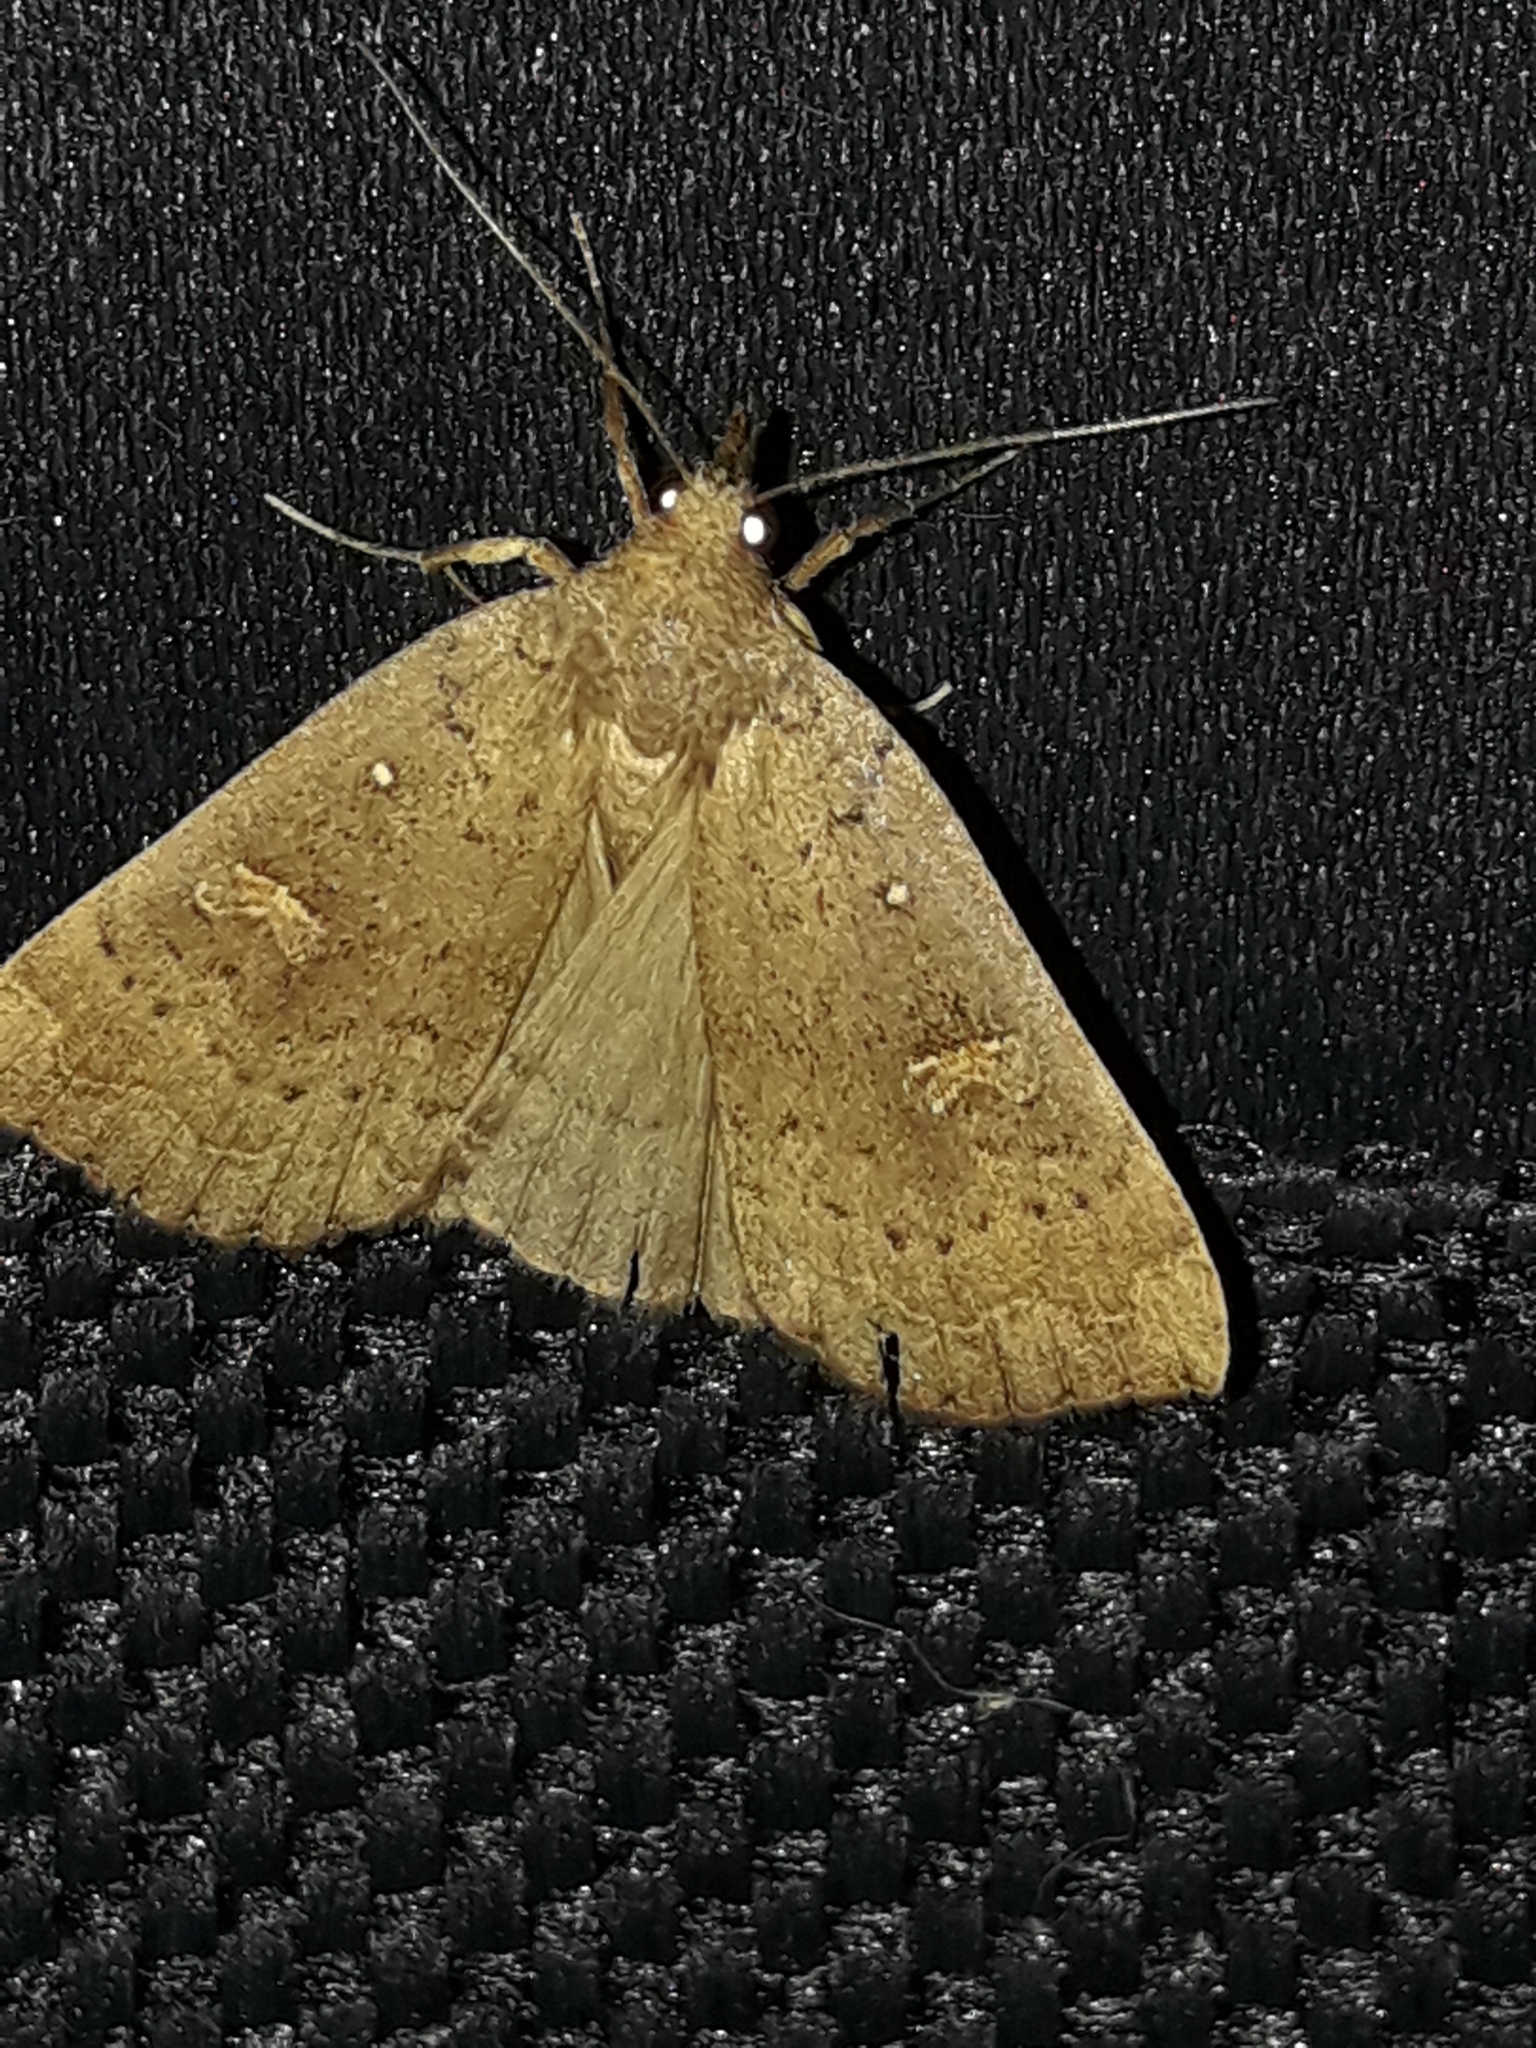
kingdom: Animalia
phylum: Arthropoda
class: Insecta
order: Lepidoptera
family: Erebidae
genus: Rhapsa
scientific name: Rhapsa scotosialis
